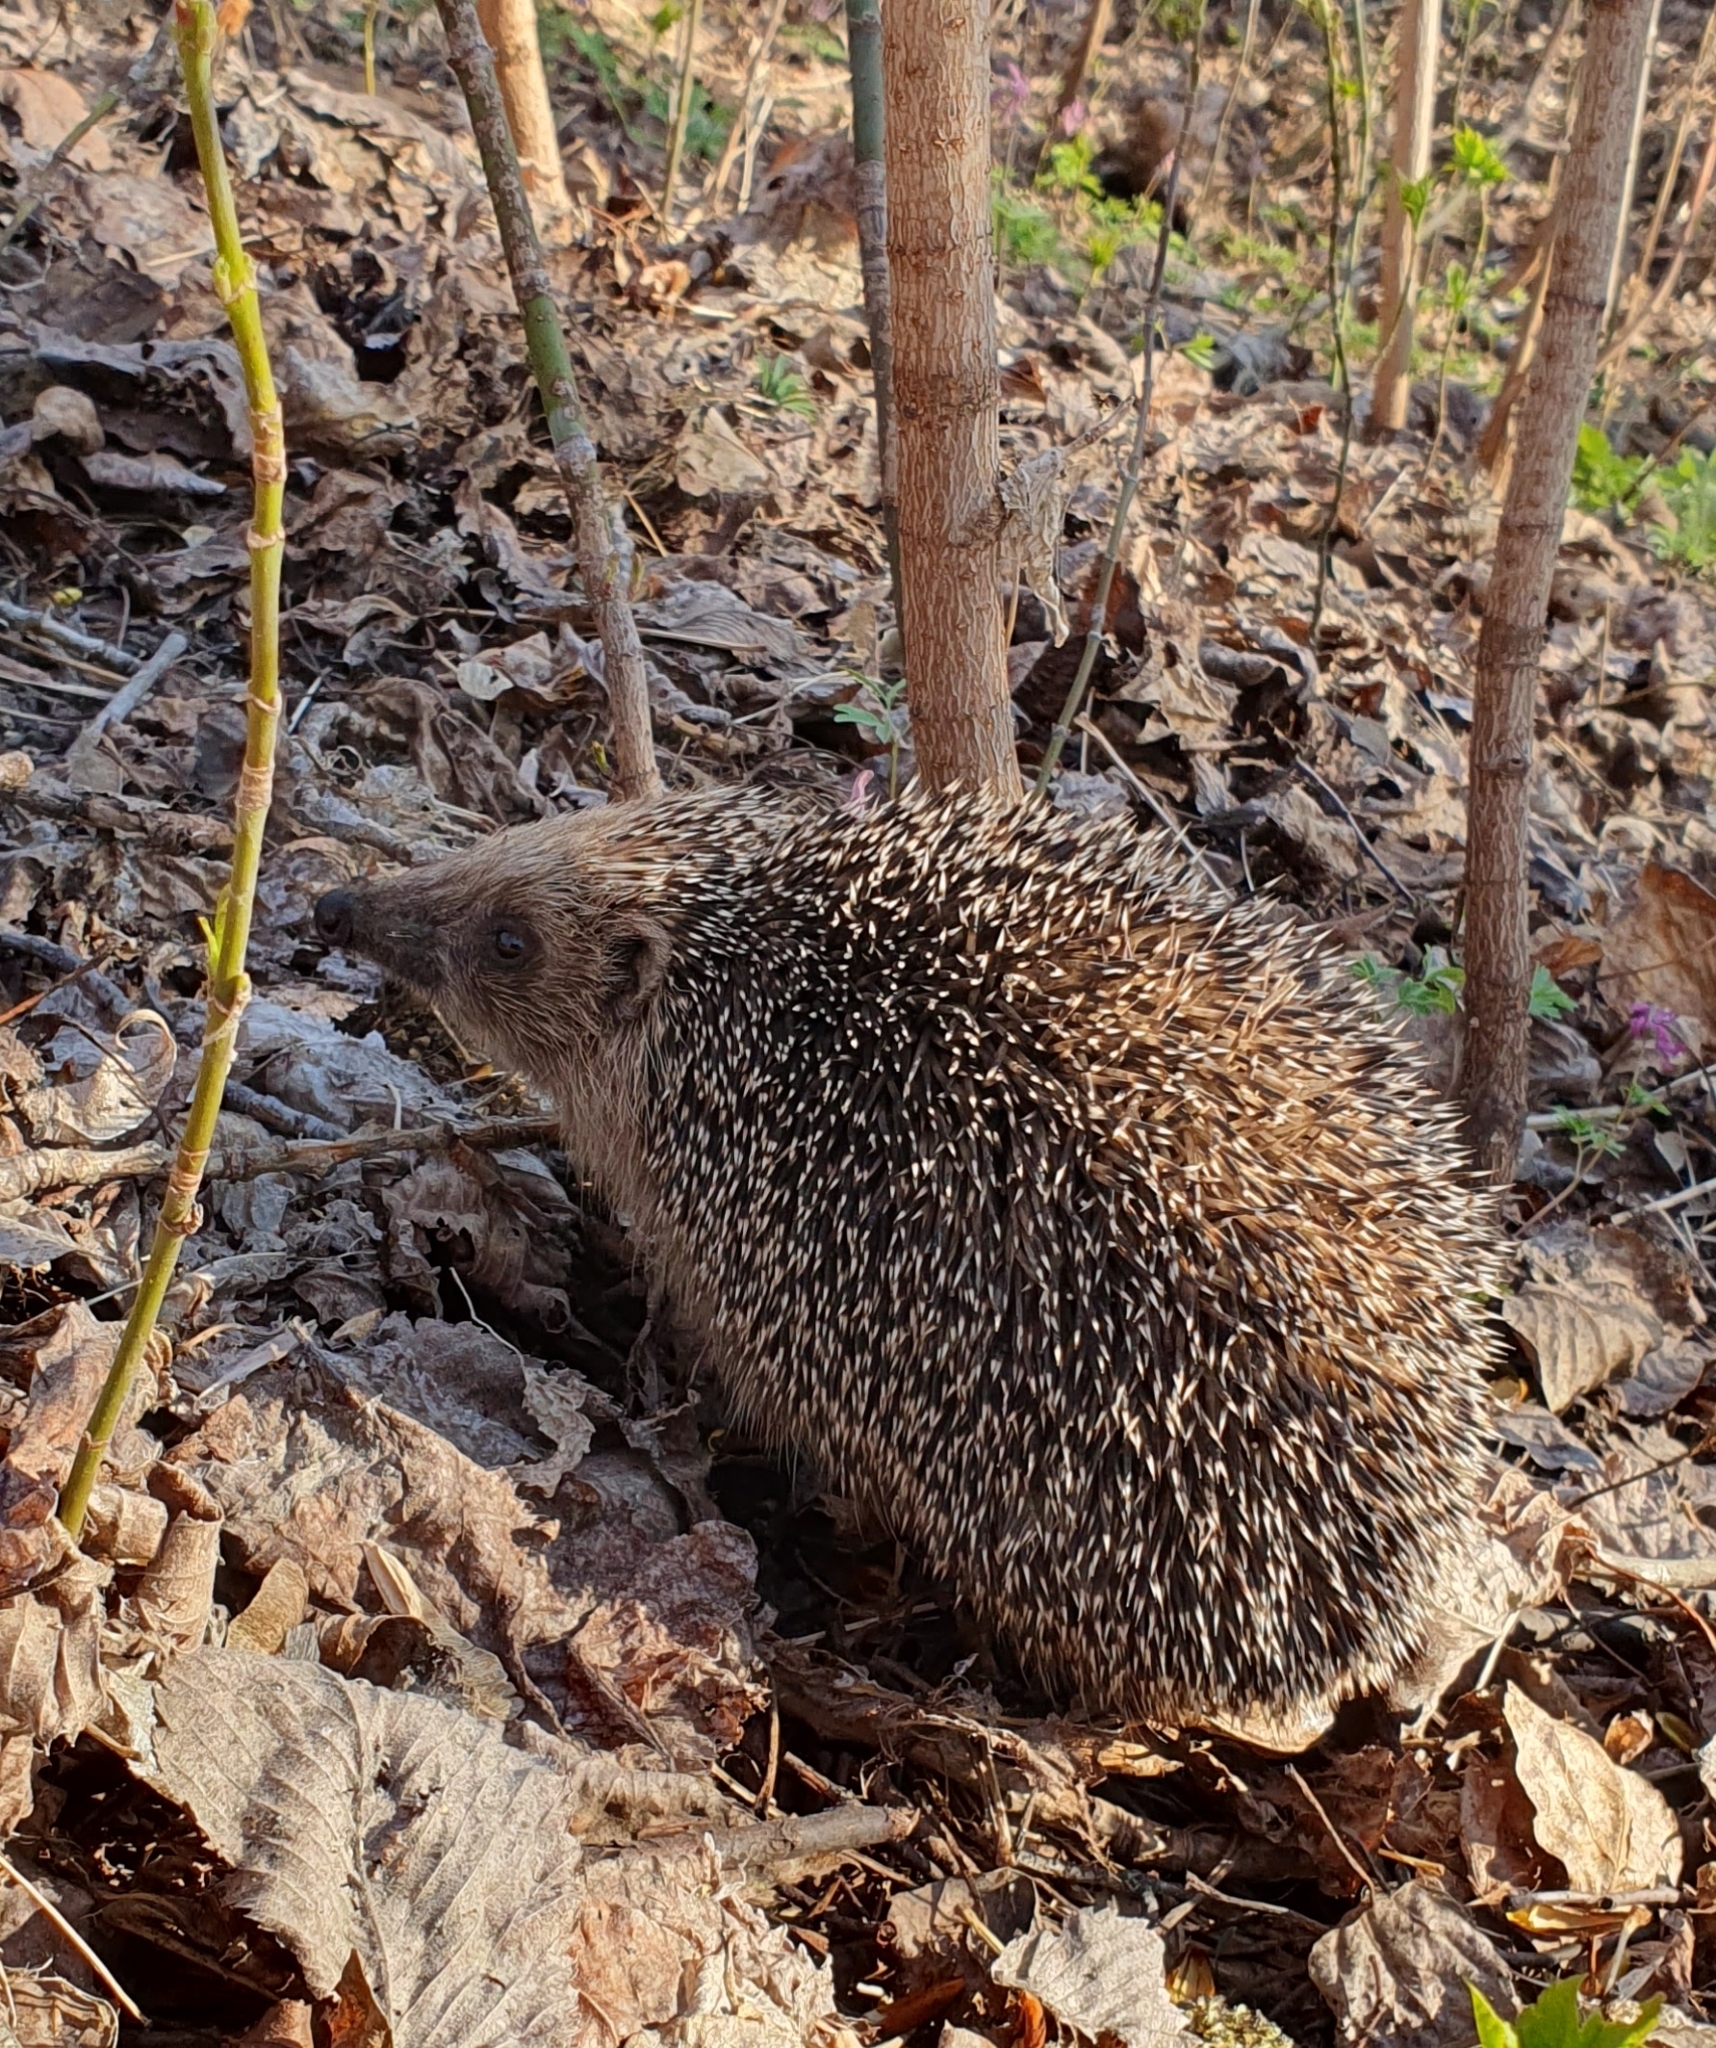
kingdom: Animalia
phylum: Chordata
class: Mammalia
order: Erinaceomorpha
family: Erinaceidae
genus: Erinaceus
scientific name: Erinaceus roumanicus
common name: Northern white-breasted hedgehog
